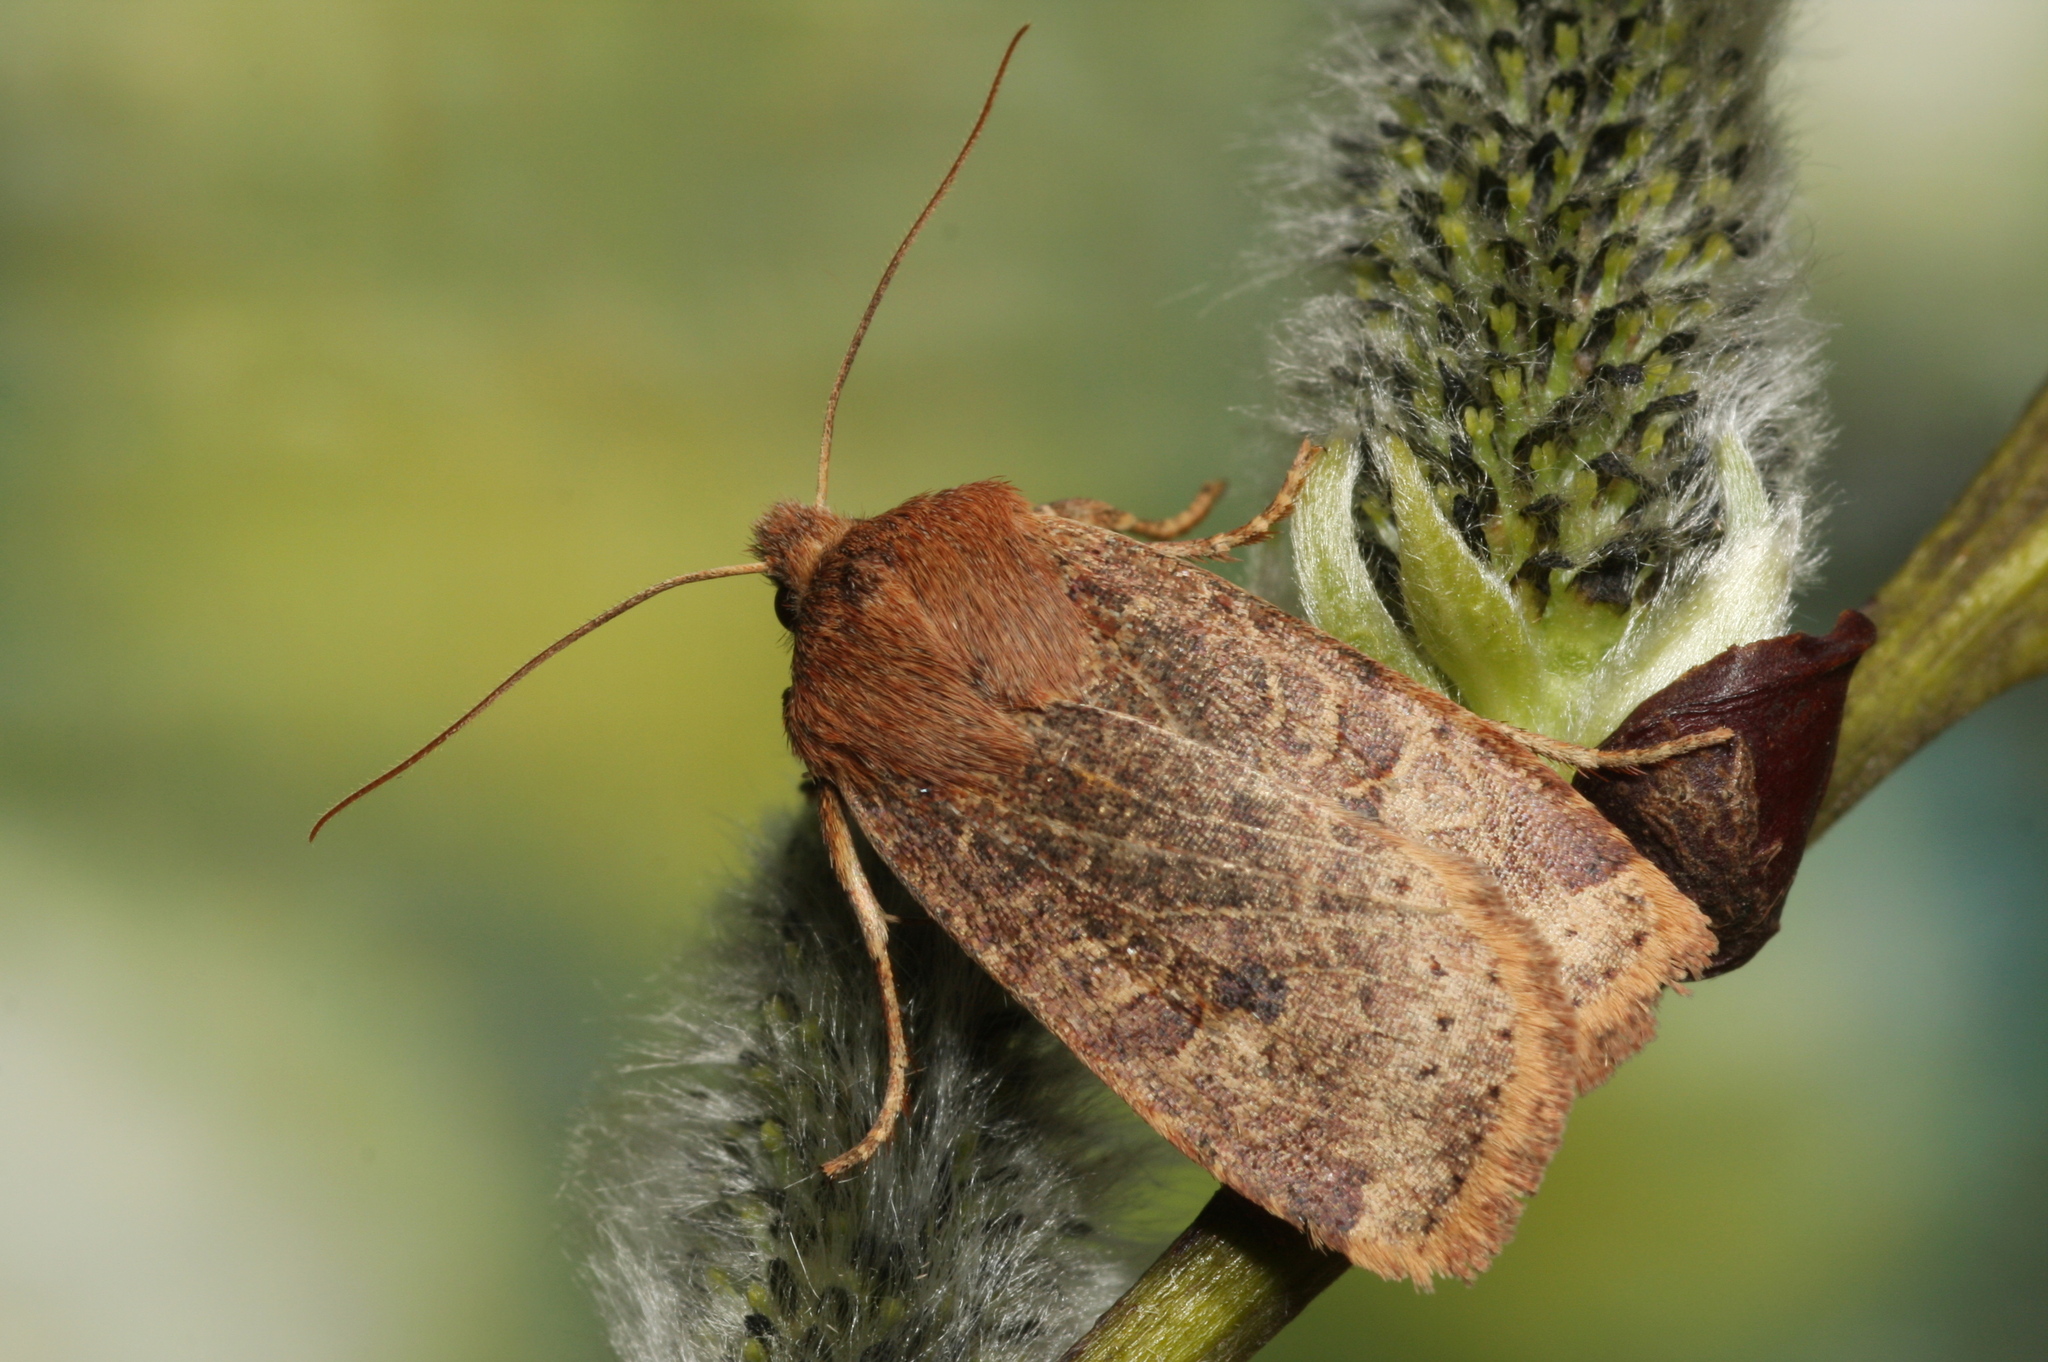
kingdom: Animalia
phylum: Arthropoda
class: Insecta
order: Lepidoptera
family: Noctuidae
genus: Conistra
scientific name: Conistra vaccinii
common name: Chestnut
